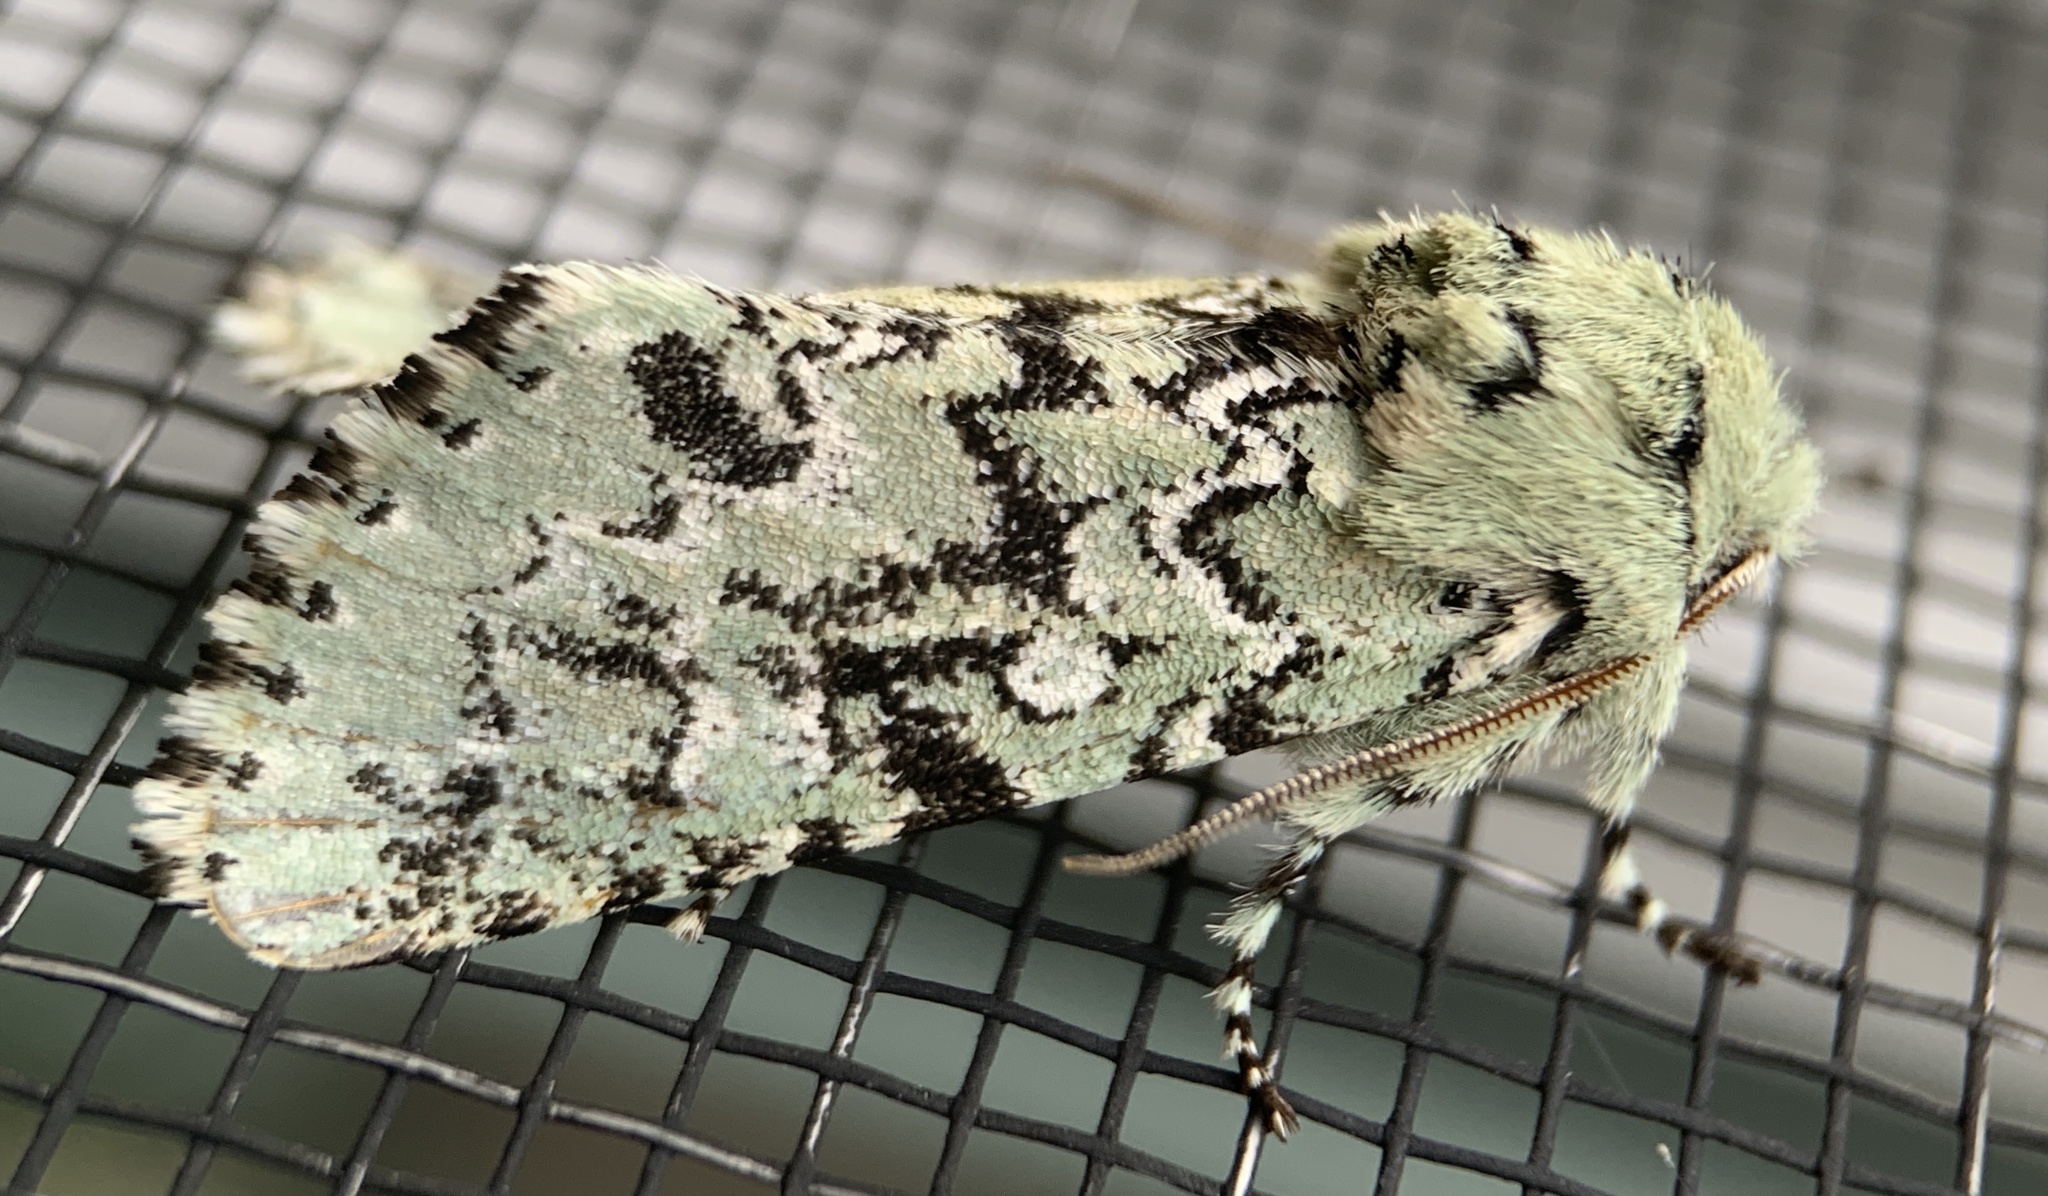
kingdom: Animalia
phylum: Arthropoda
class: Insecta
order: Lepidoptera
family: Noctuidae
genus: Feralia
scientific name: Feralia jocosa
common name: Joker
